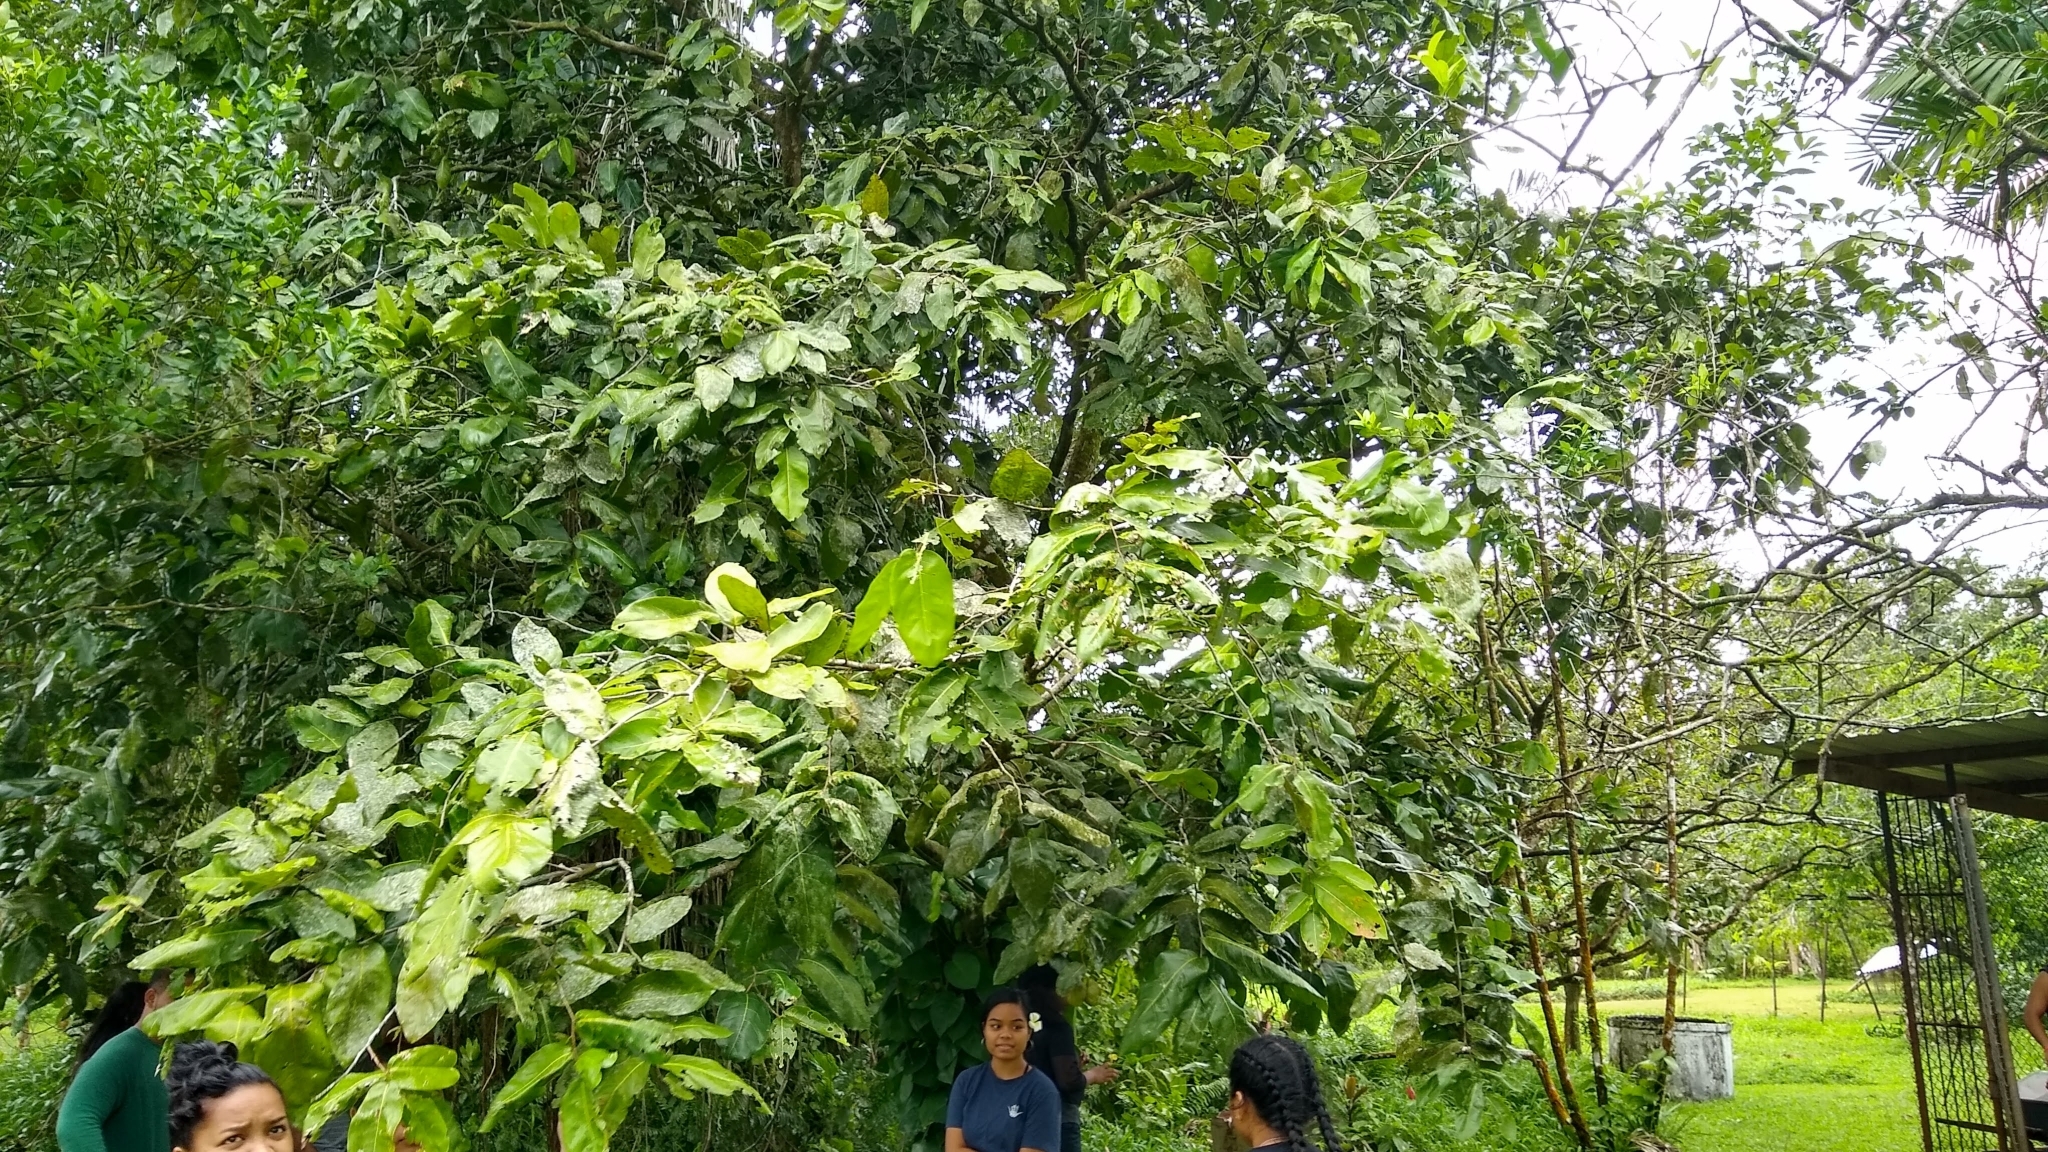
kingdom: Plantae
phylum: Tracheophyta
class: Magnoliopsida
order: Fabales
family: Fabaceae
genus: Inocarpus
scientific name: Inocarpus fagifer
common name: Polynesian chestnut
